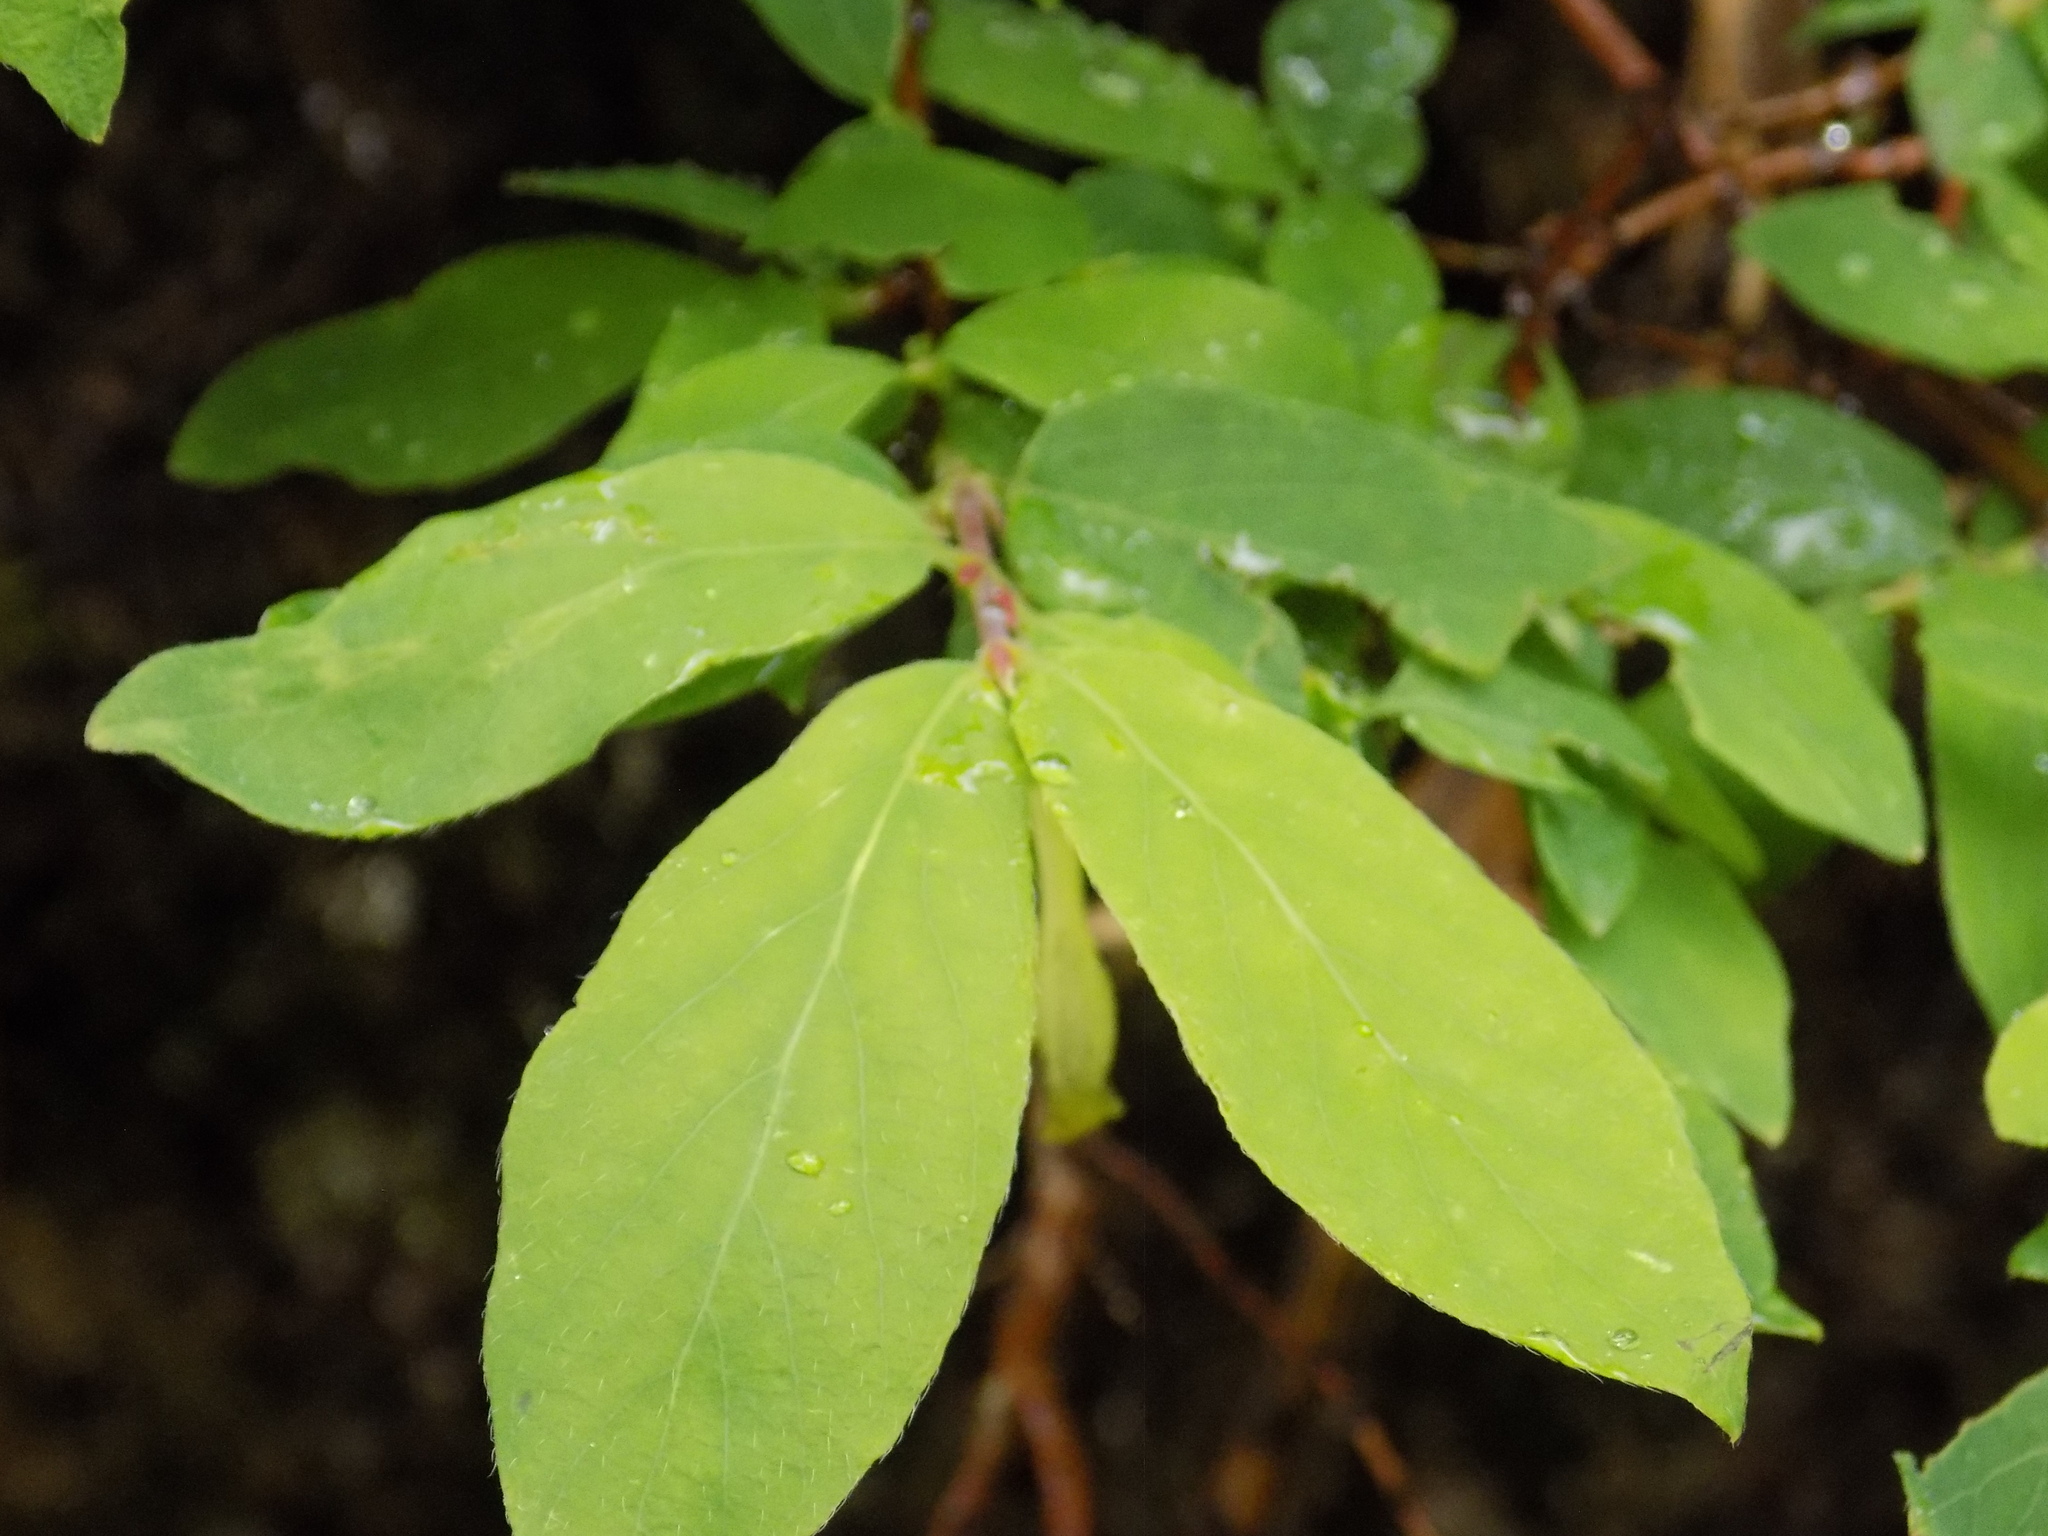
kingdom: Plantae
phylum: Tracheophyta
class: Magnoliopsida
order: Dipsacales
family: Caprifoliaceae
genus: Lonicera
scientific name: Lonicera caerulea
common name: Blue honeysuckle
